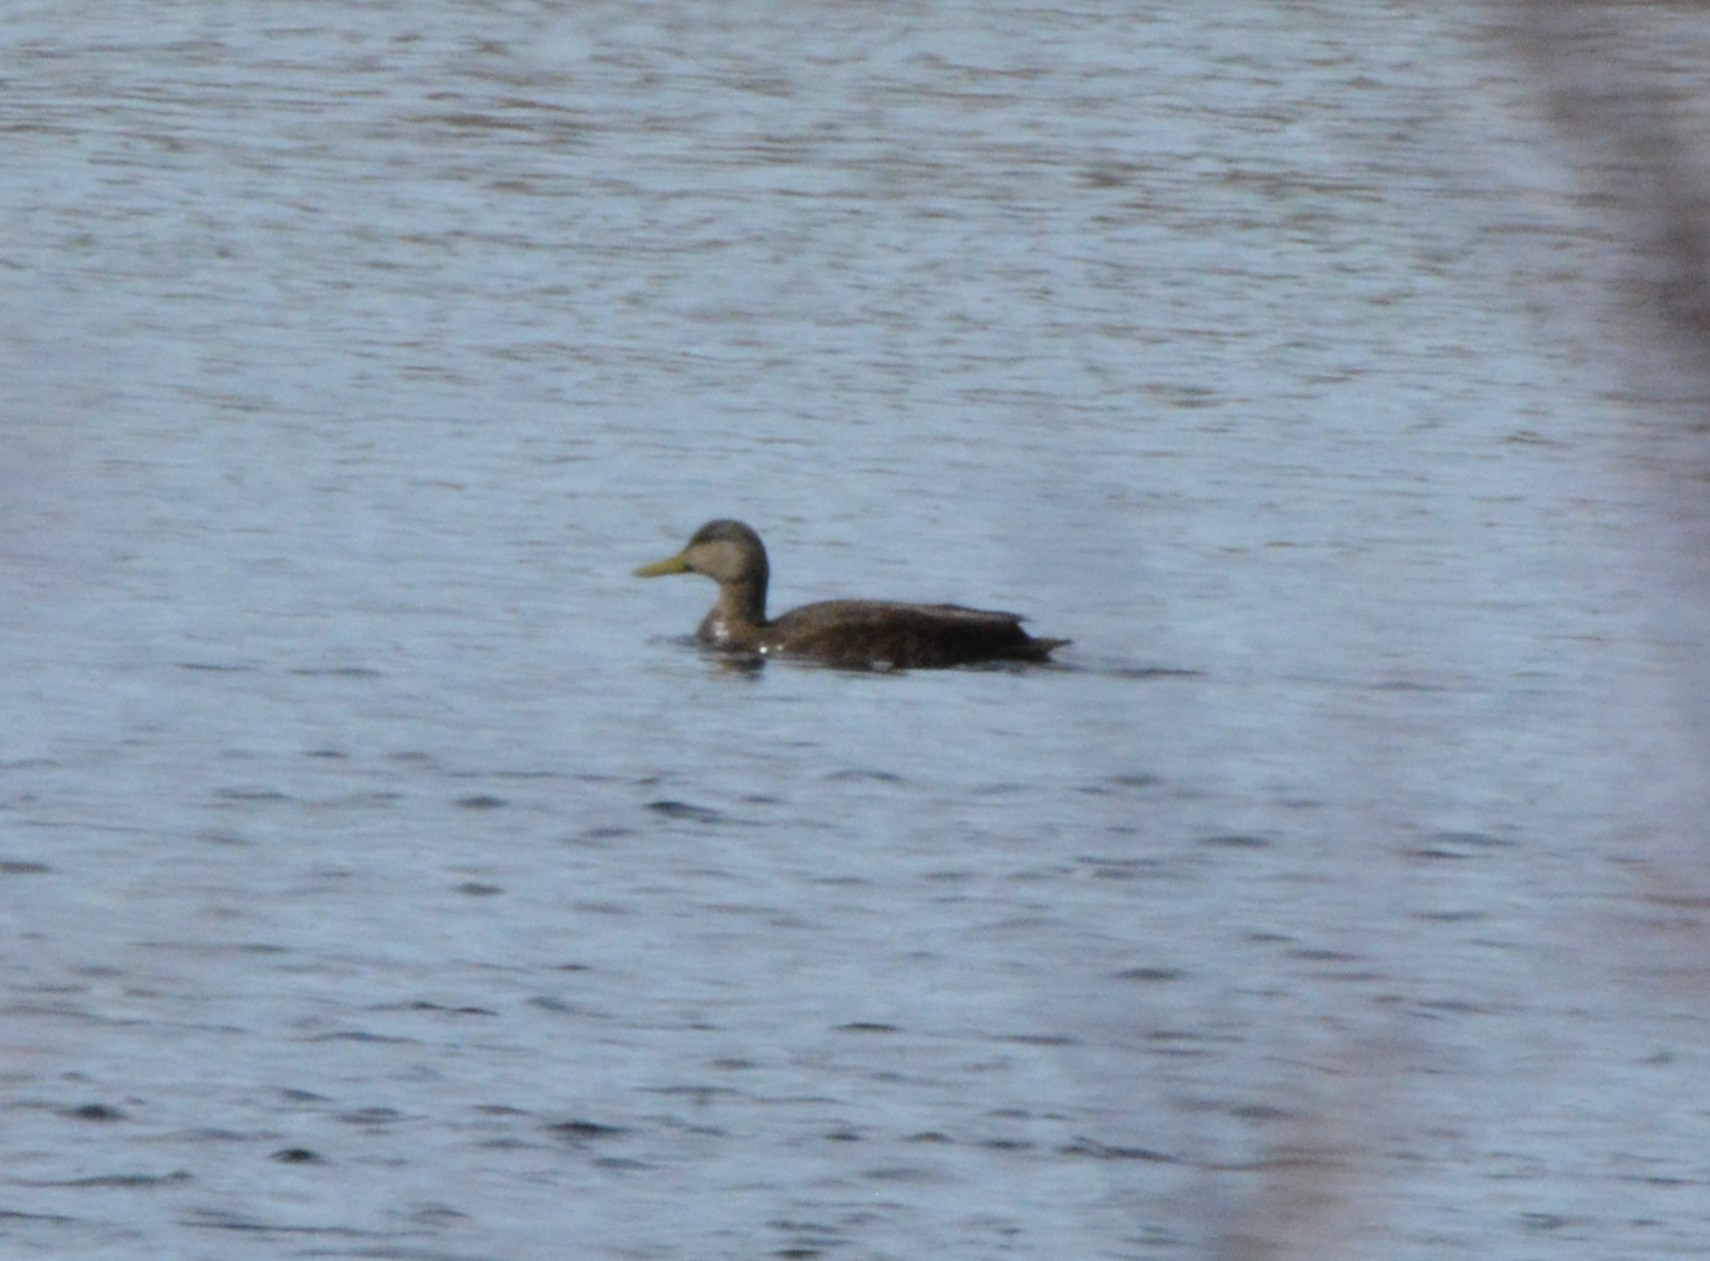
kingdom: Animalia
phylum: Chordata
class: Aves
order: Anseriformes
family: Anatidae
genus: Anas
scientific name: Anas rubripes
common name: American black duck
